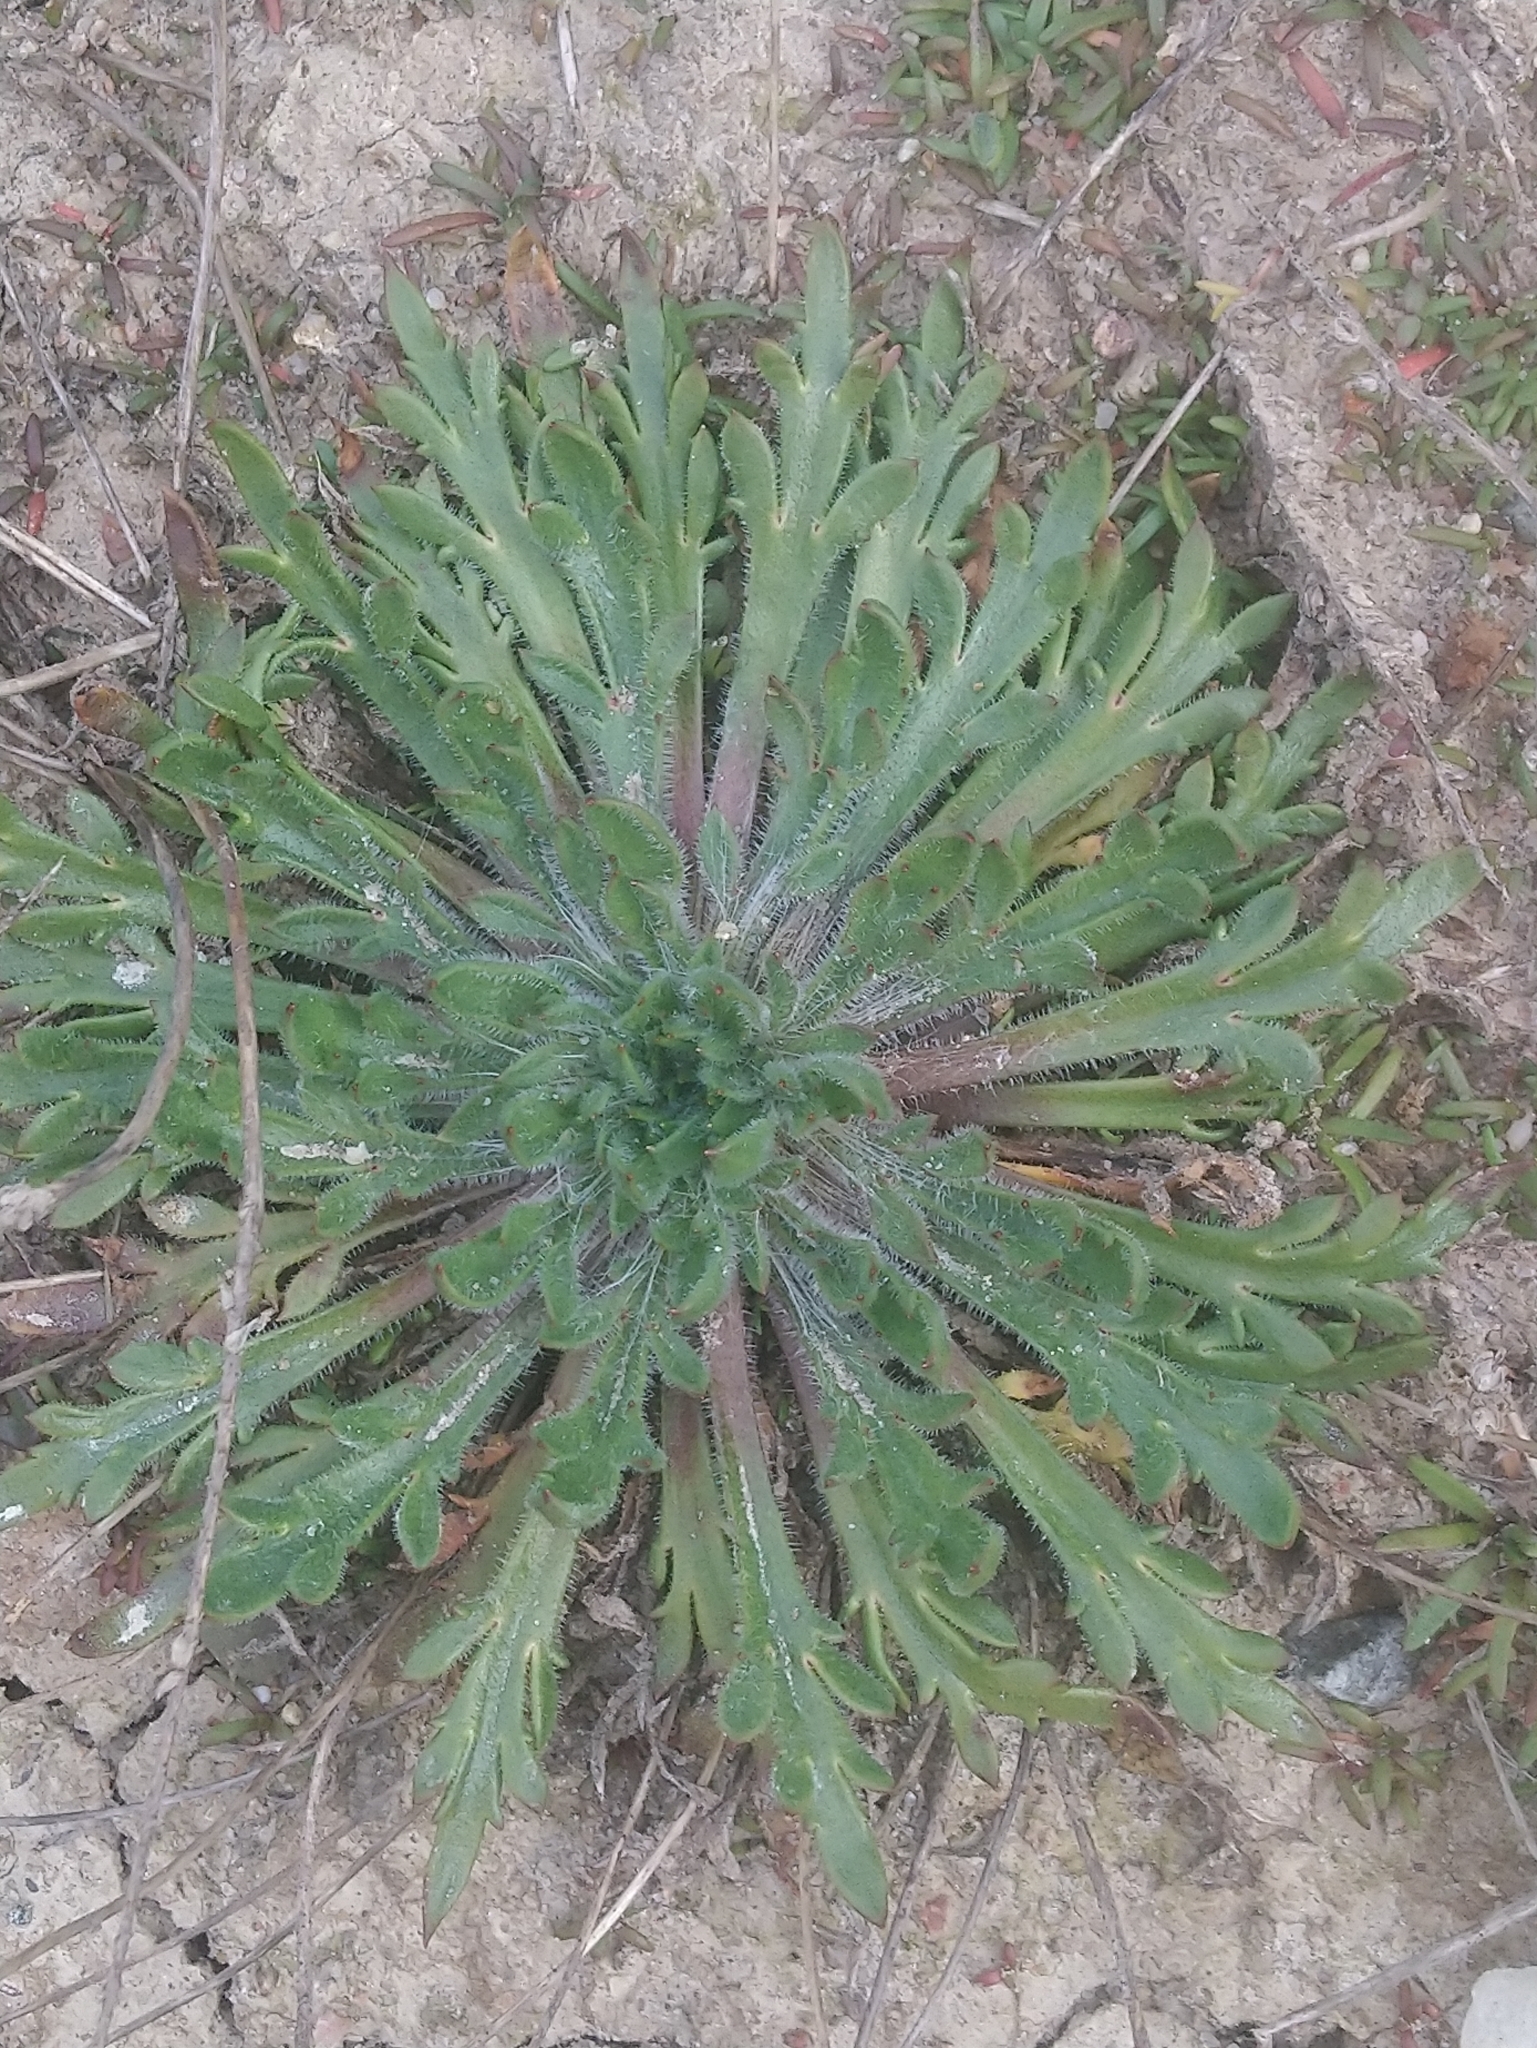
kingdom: Plantae
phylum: Tracheophyta
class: Magnoliopsida
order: Lamiales
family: Plantaginaceae
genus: Plantago
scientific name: Plantago coronopus
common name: Buck's-horn plantain
